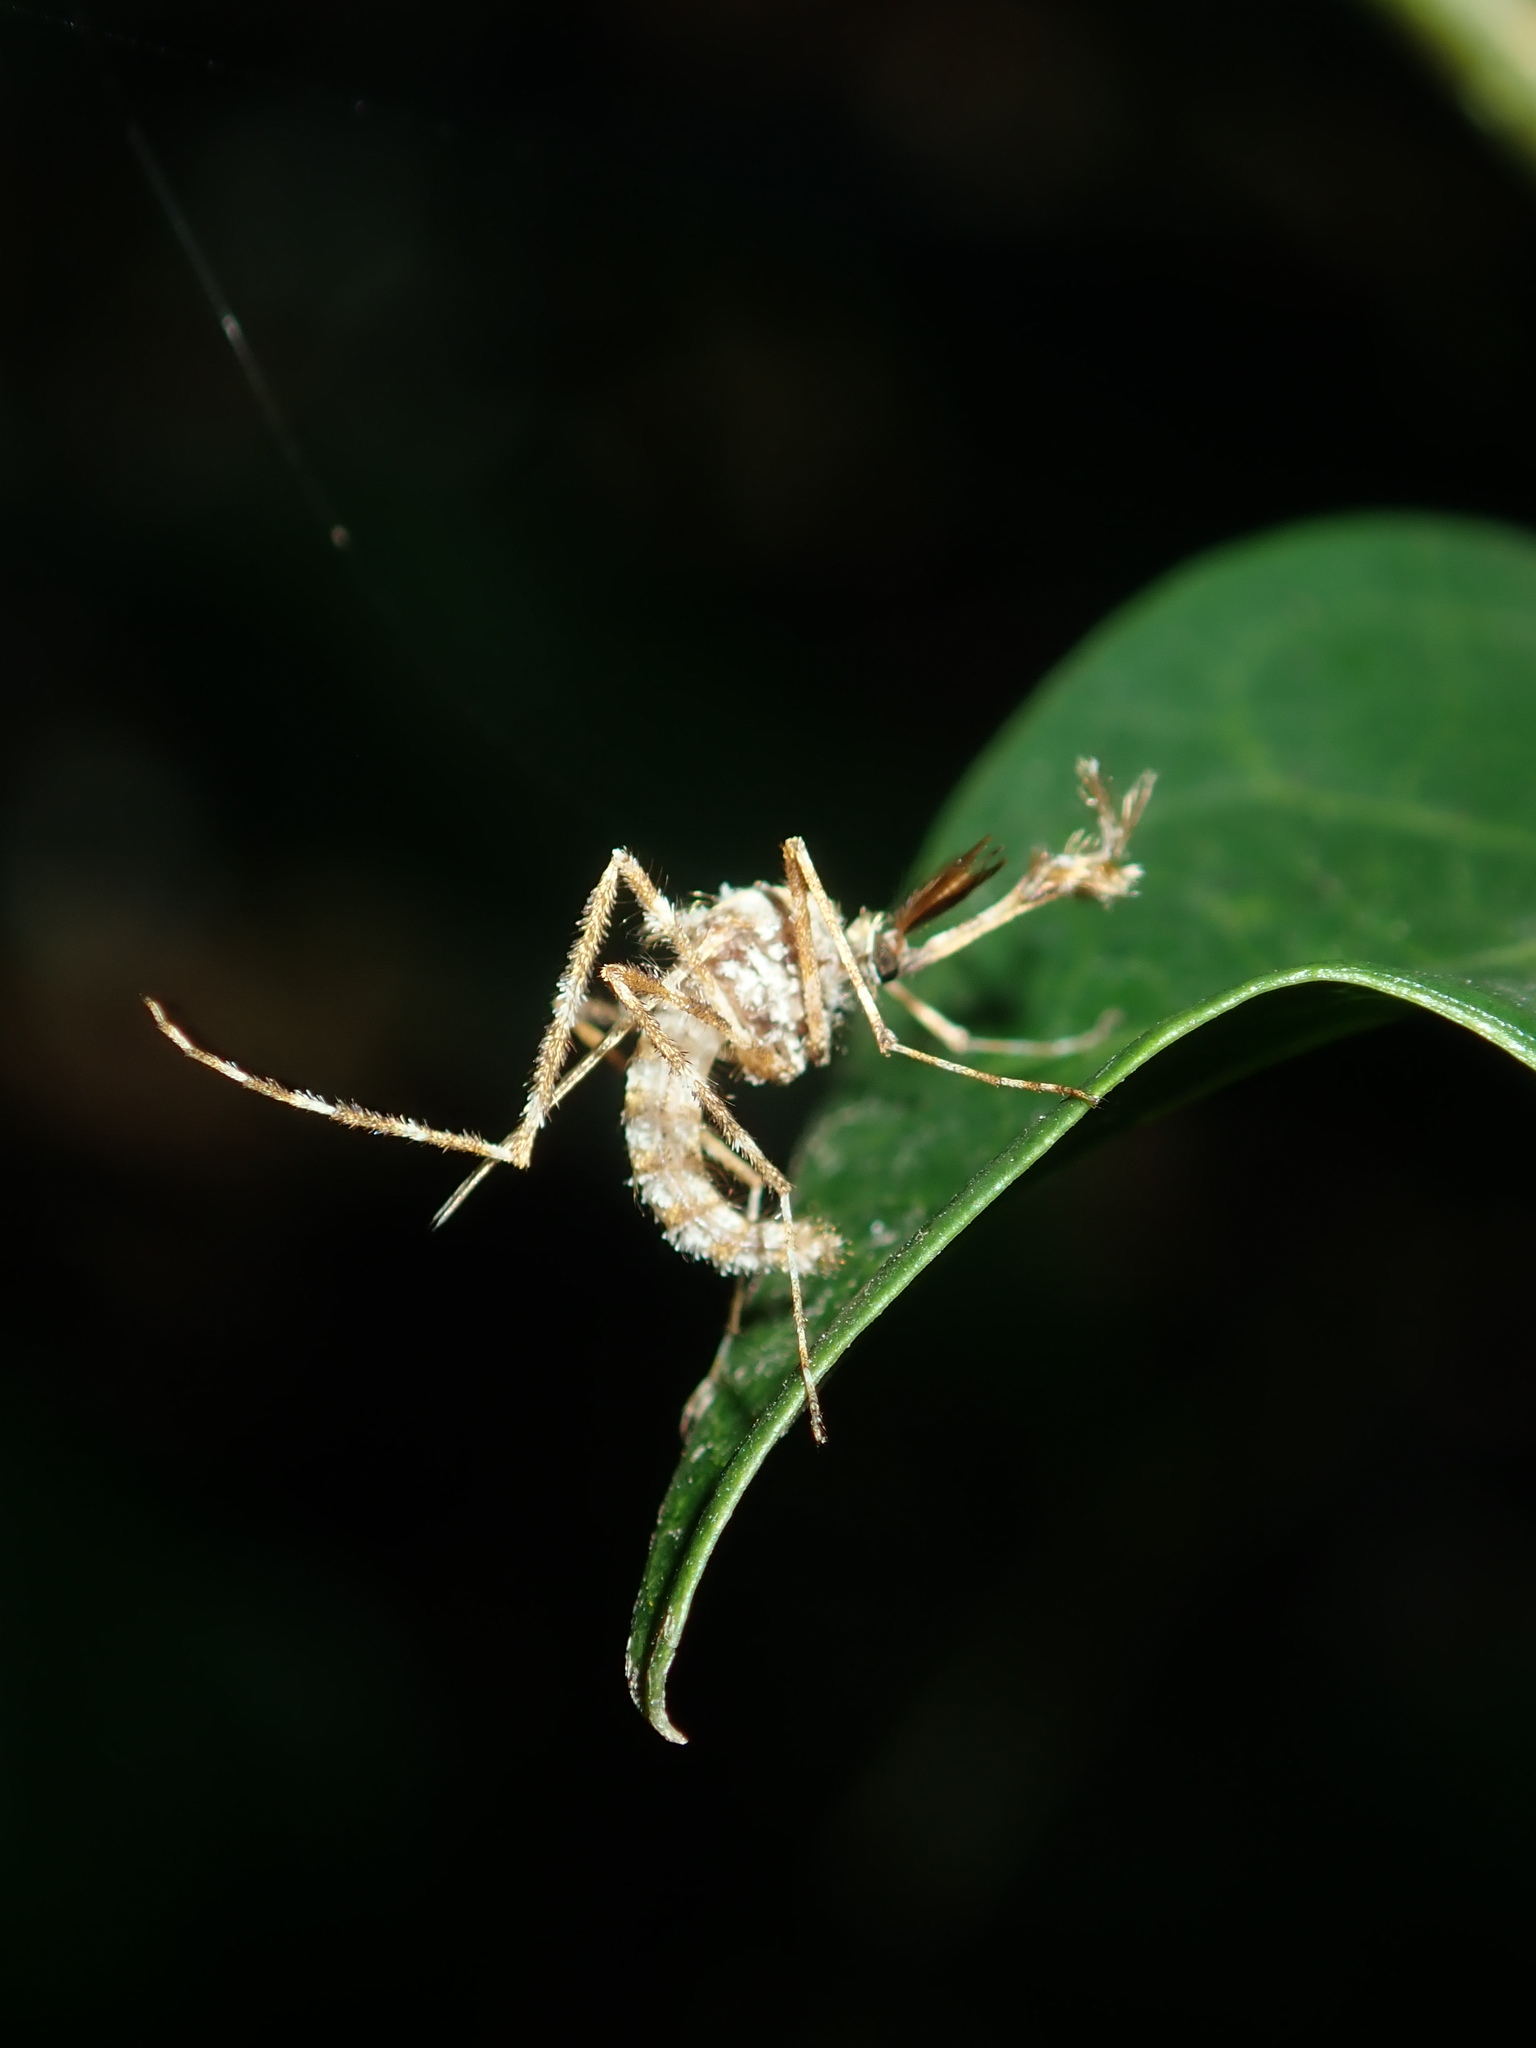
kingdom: Animalia
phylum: Arthropoda
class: Insecta
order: Diptera
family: Culicidae
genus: Aedes
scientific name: Aedes alternans
